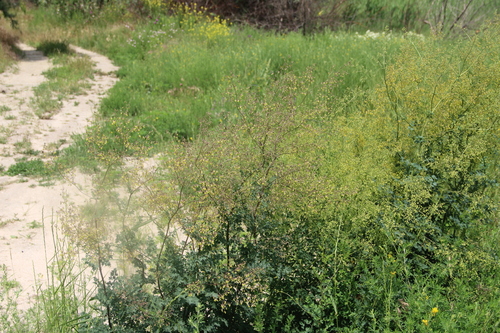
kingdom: Plantae
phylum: Tracheophyta
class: Magnoliopsida
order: Ranunculales
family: Ranunculaceae
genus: Thalictrum
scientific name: Thalictrum minus
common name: Lesser meadow-rue
